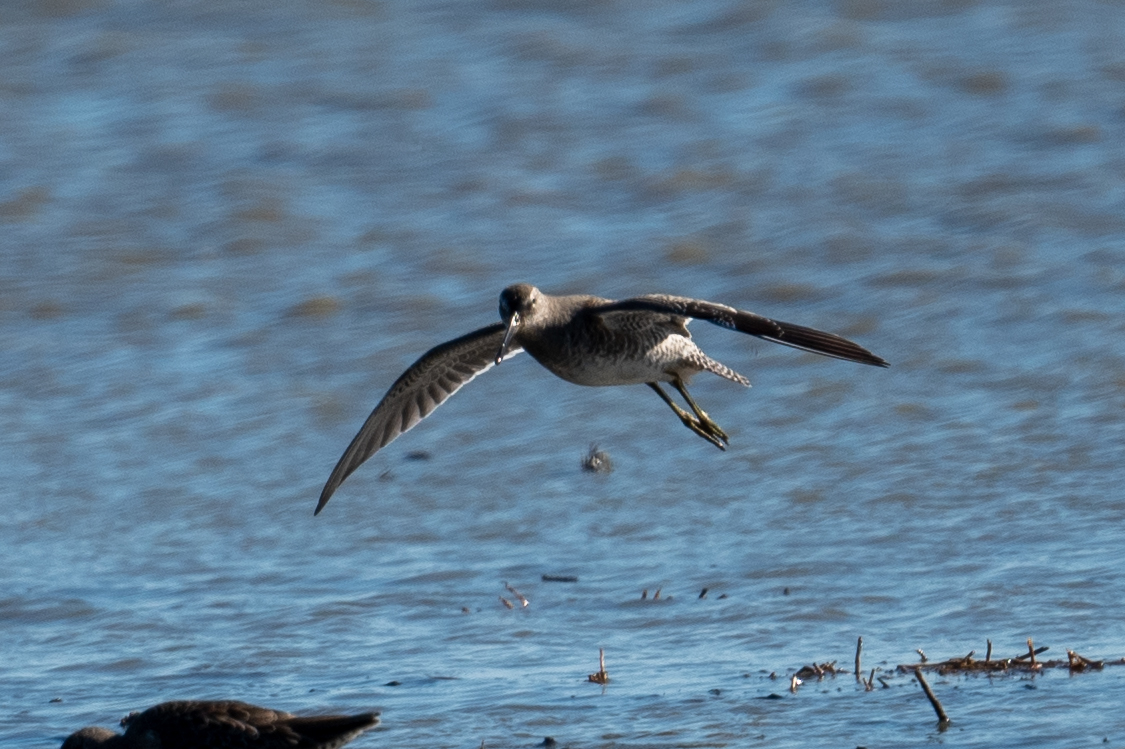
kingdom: Animalia
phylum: Chordata
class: Aves
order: Charadriiformes
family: Scolopacidae
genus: Limnodromus
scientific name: Limnodromus scolopaceus
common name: Long-billed dowitcher
